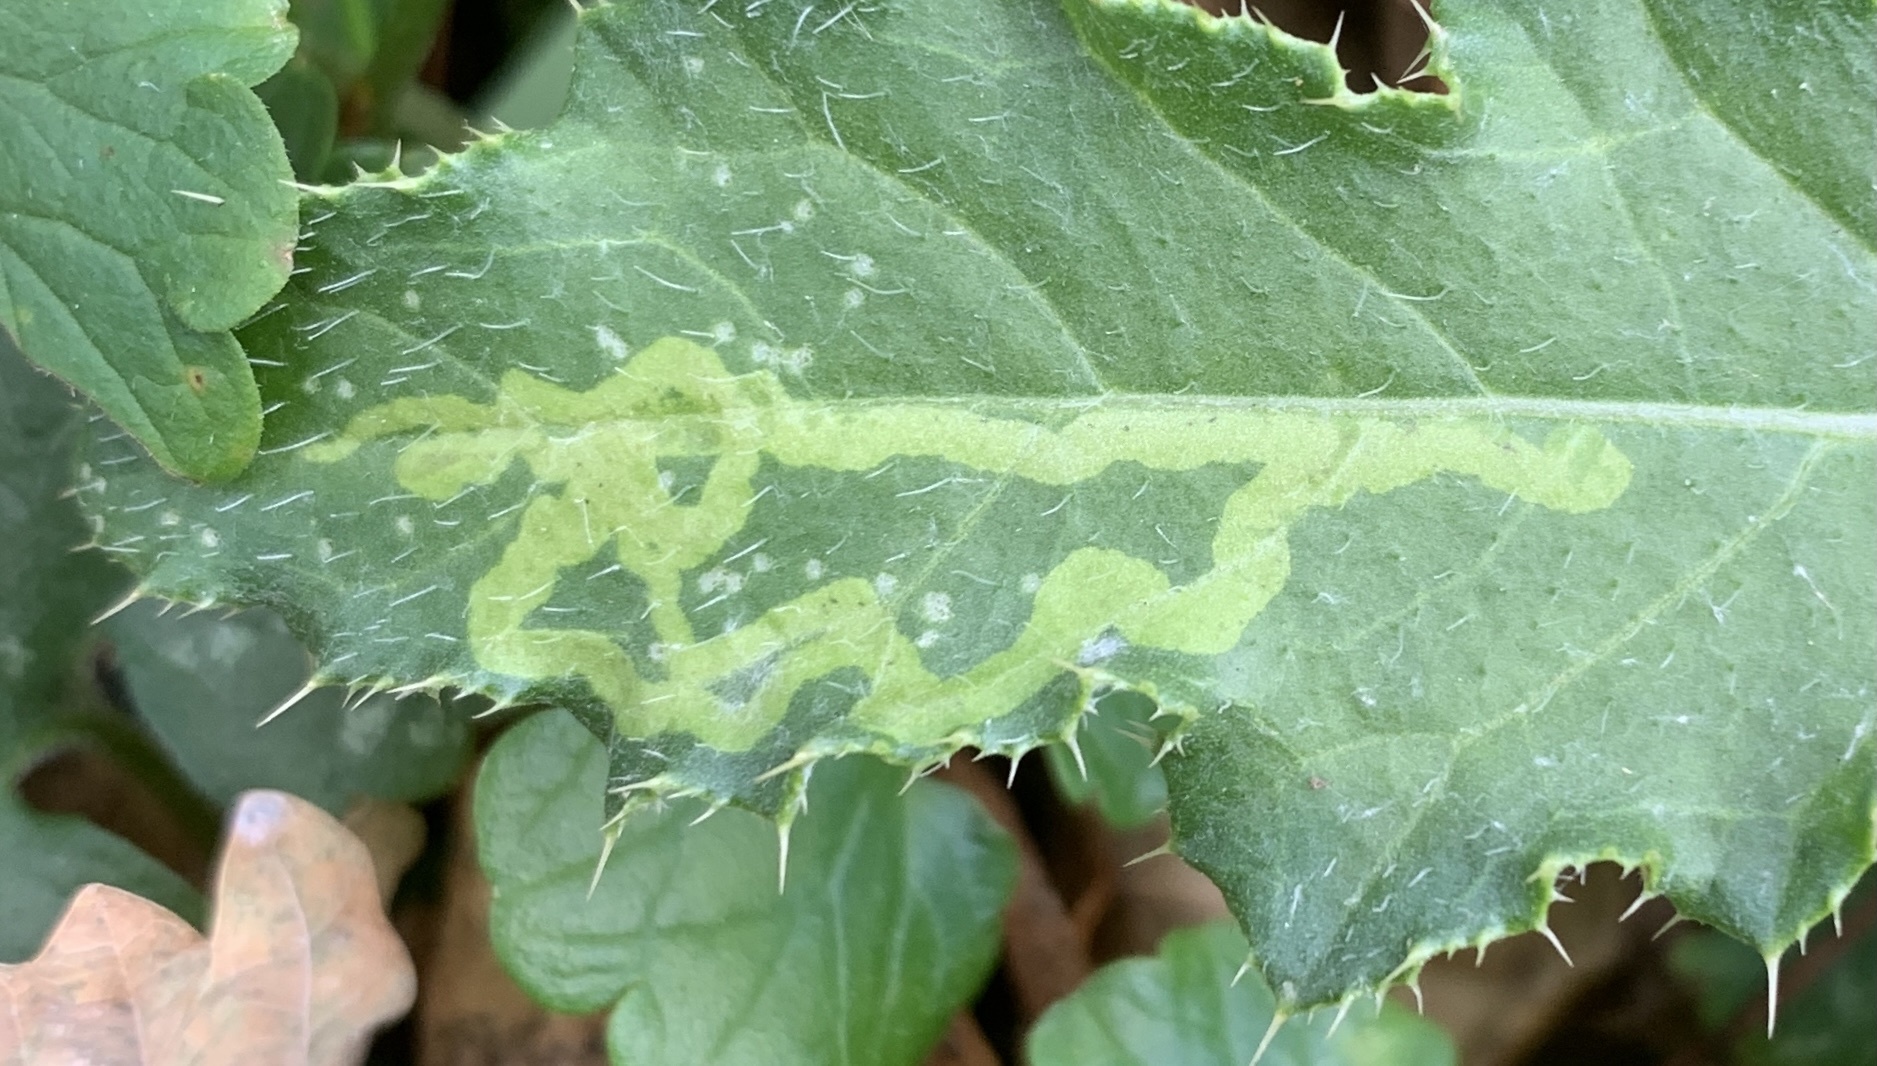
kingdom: Animalia
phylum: Arthropoda
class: Insecta
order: Diptera
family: Agromyzidae
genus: Phytomyza
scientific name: Phytomyza spinaciae
